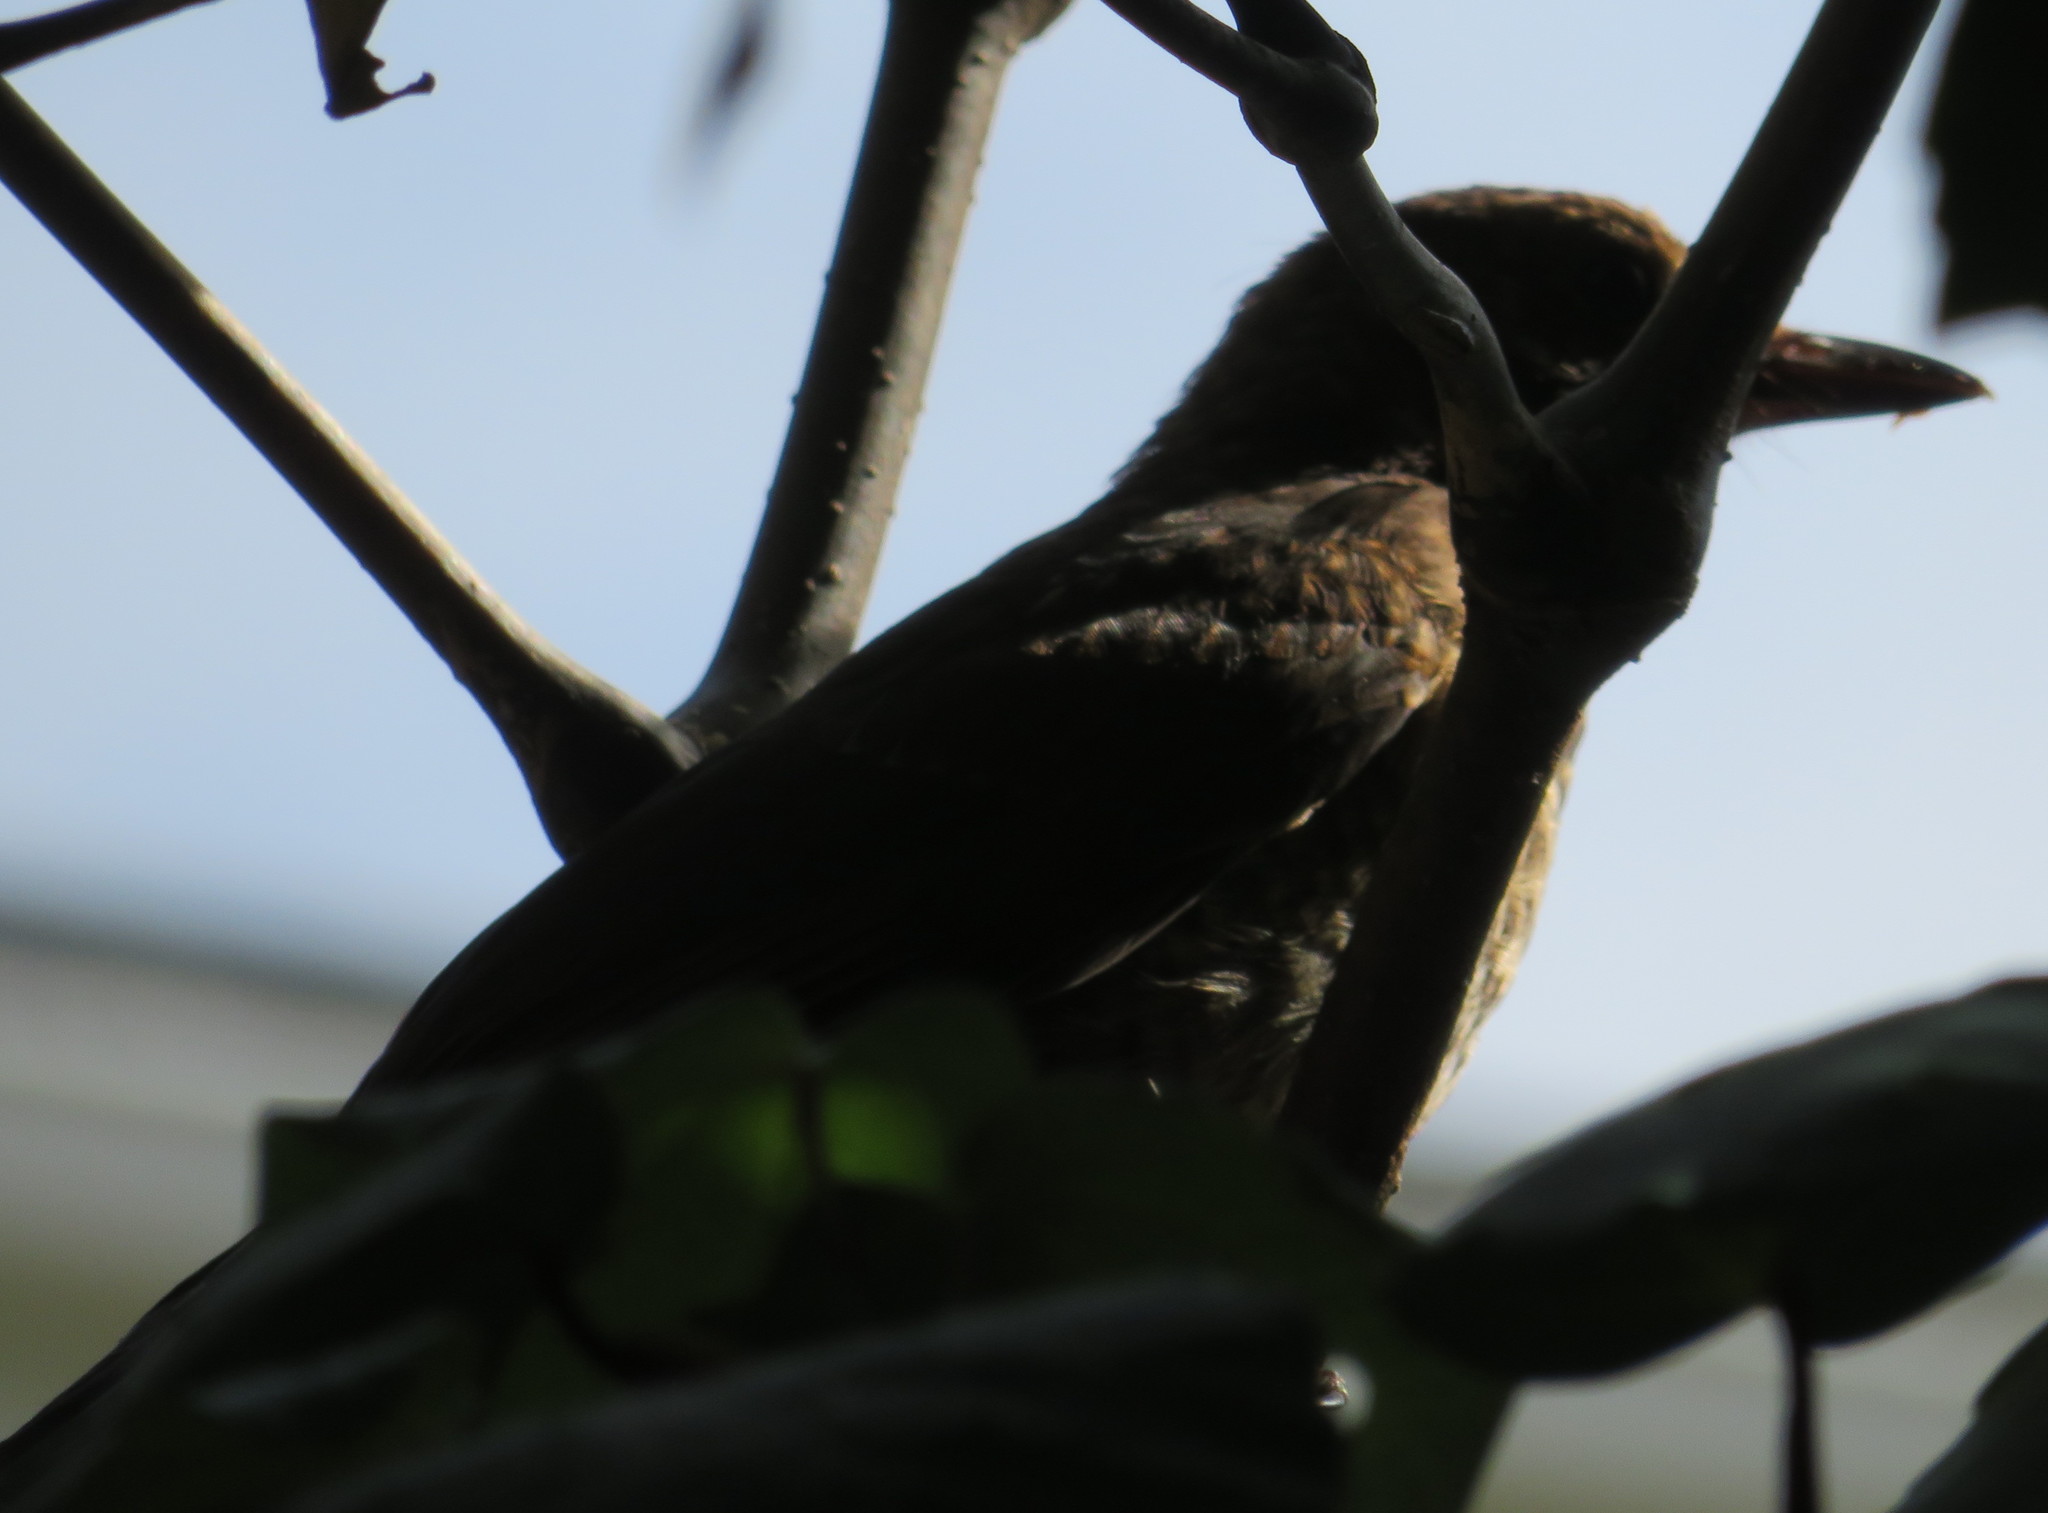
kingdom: Animalia
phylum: Chordata
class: Aves
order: Passeriformes
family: Turdidae
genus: Turdus
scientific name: Turdus merula
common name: Common blackbird
